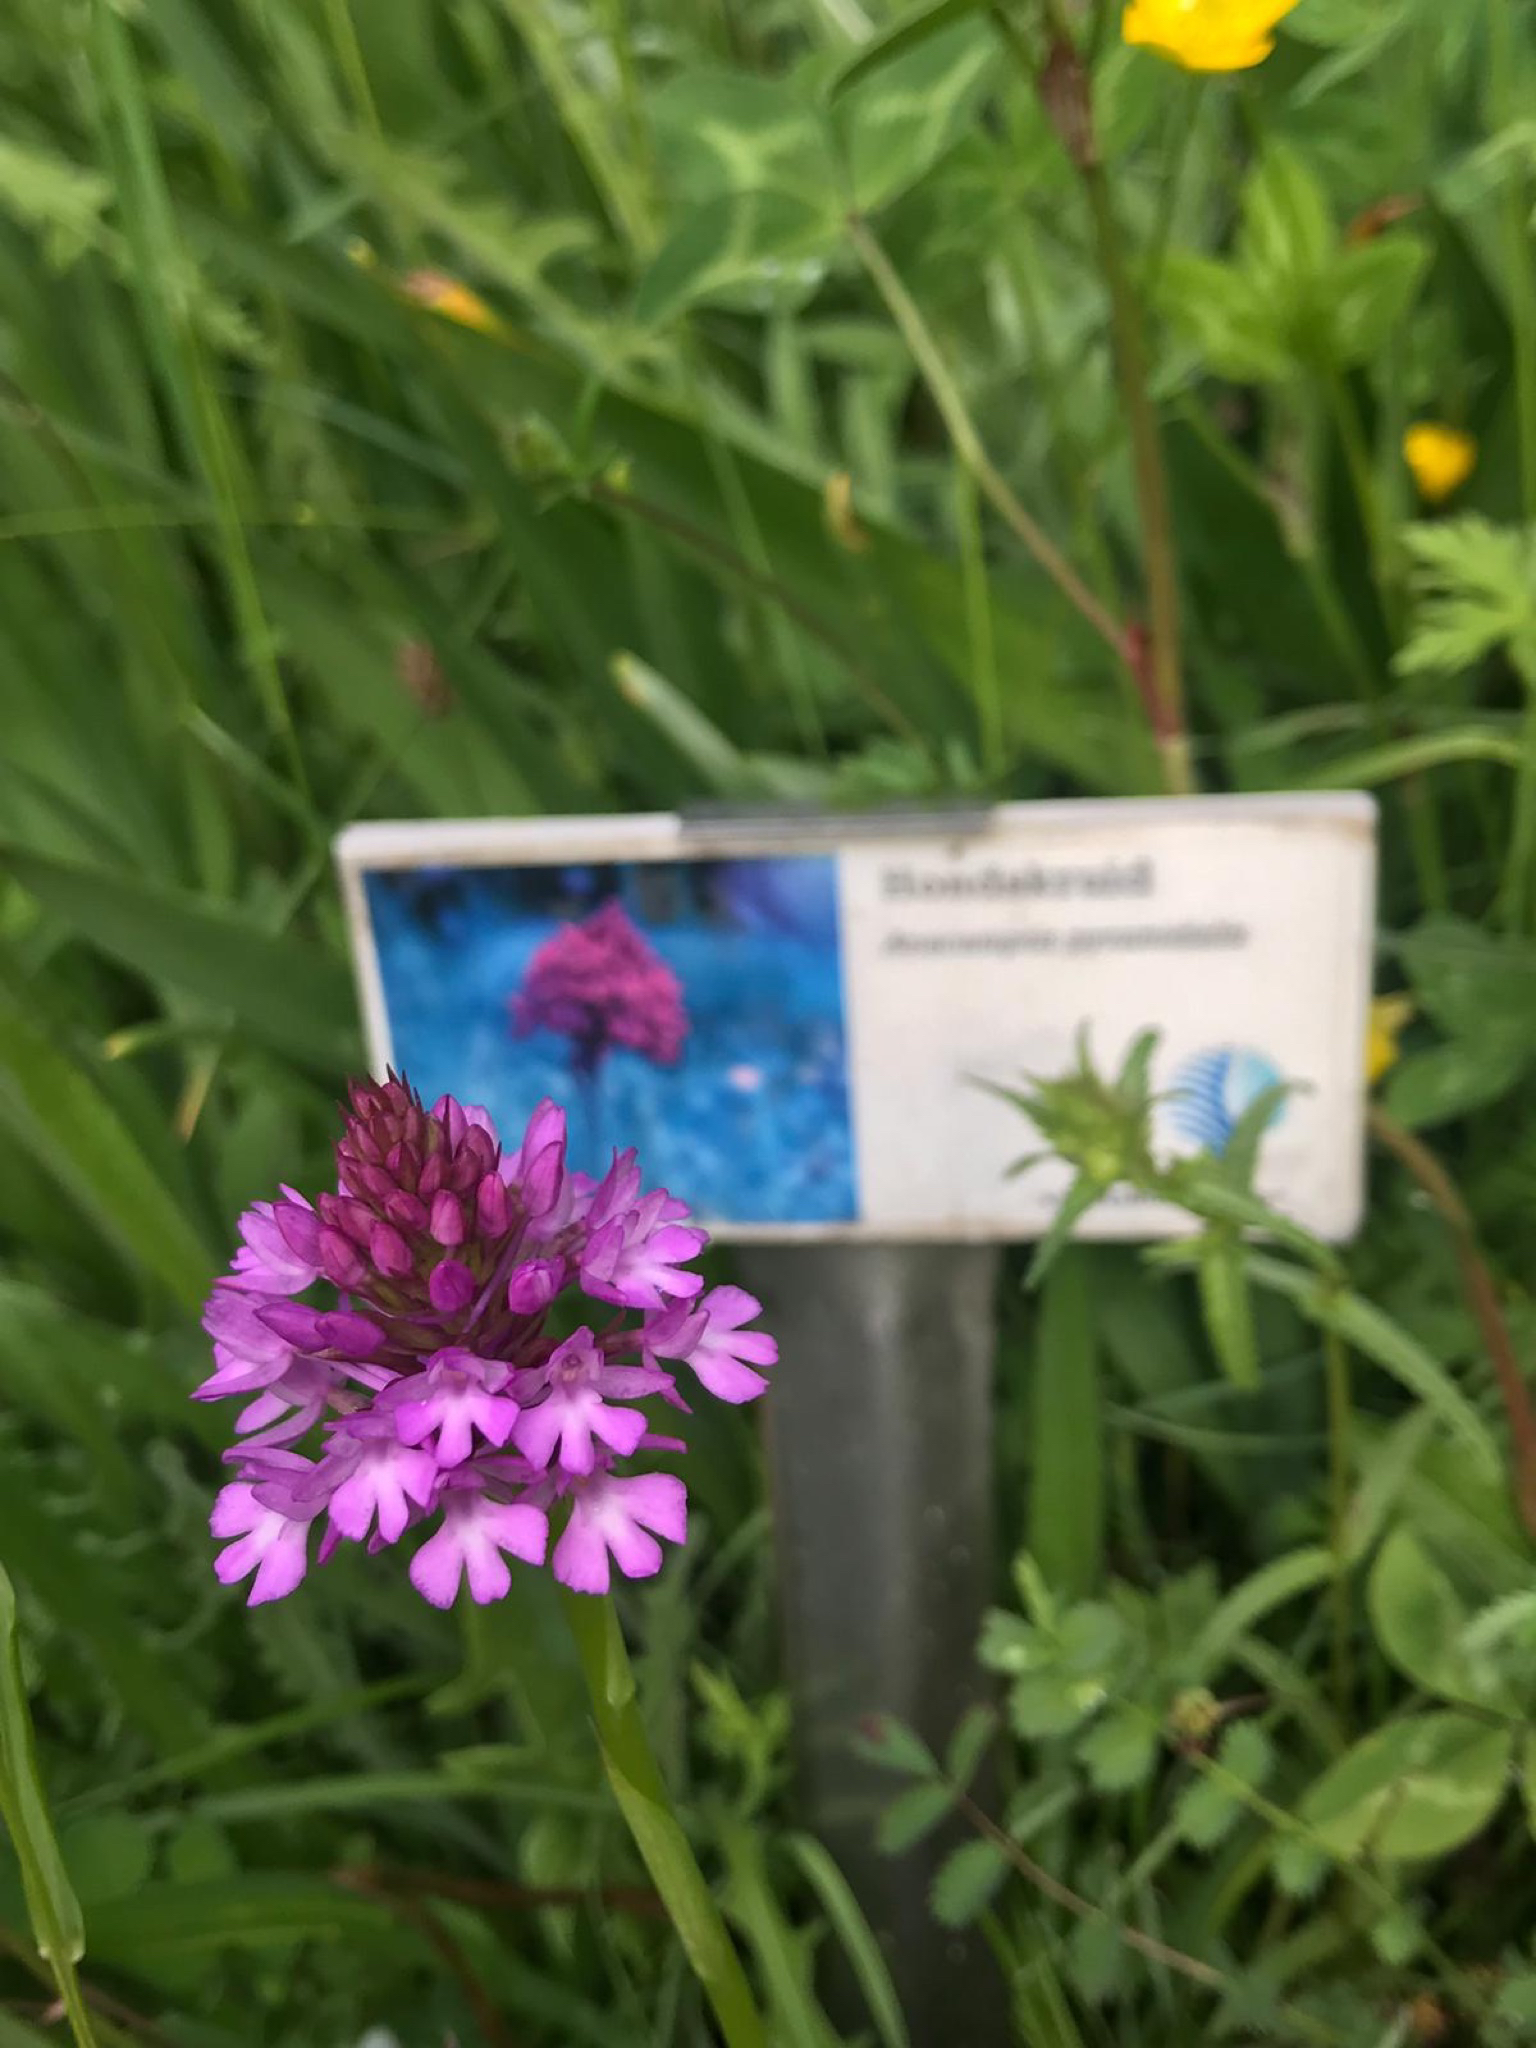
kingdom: Plantae
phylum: Tracheophyta
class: Liliopsida
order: Asparagales
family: Orchidaceae
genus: Anacamptis
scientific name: Anacamptis pyramidalis
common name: Pyramidal orchid
